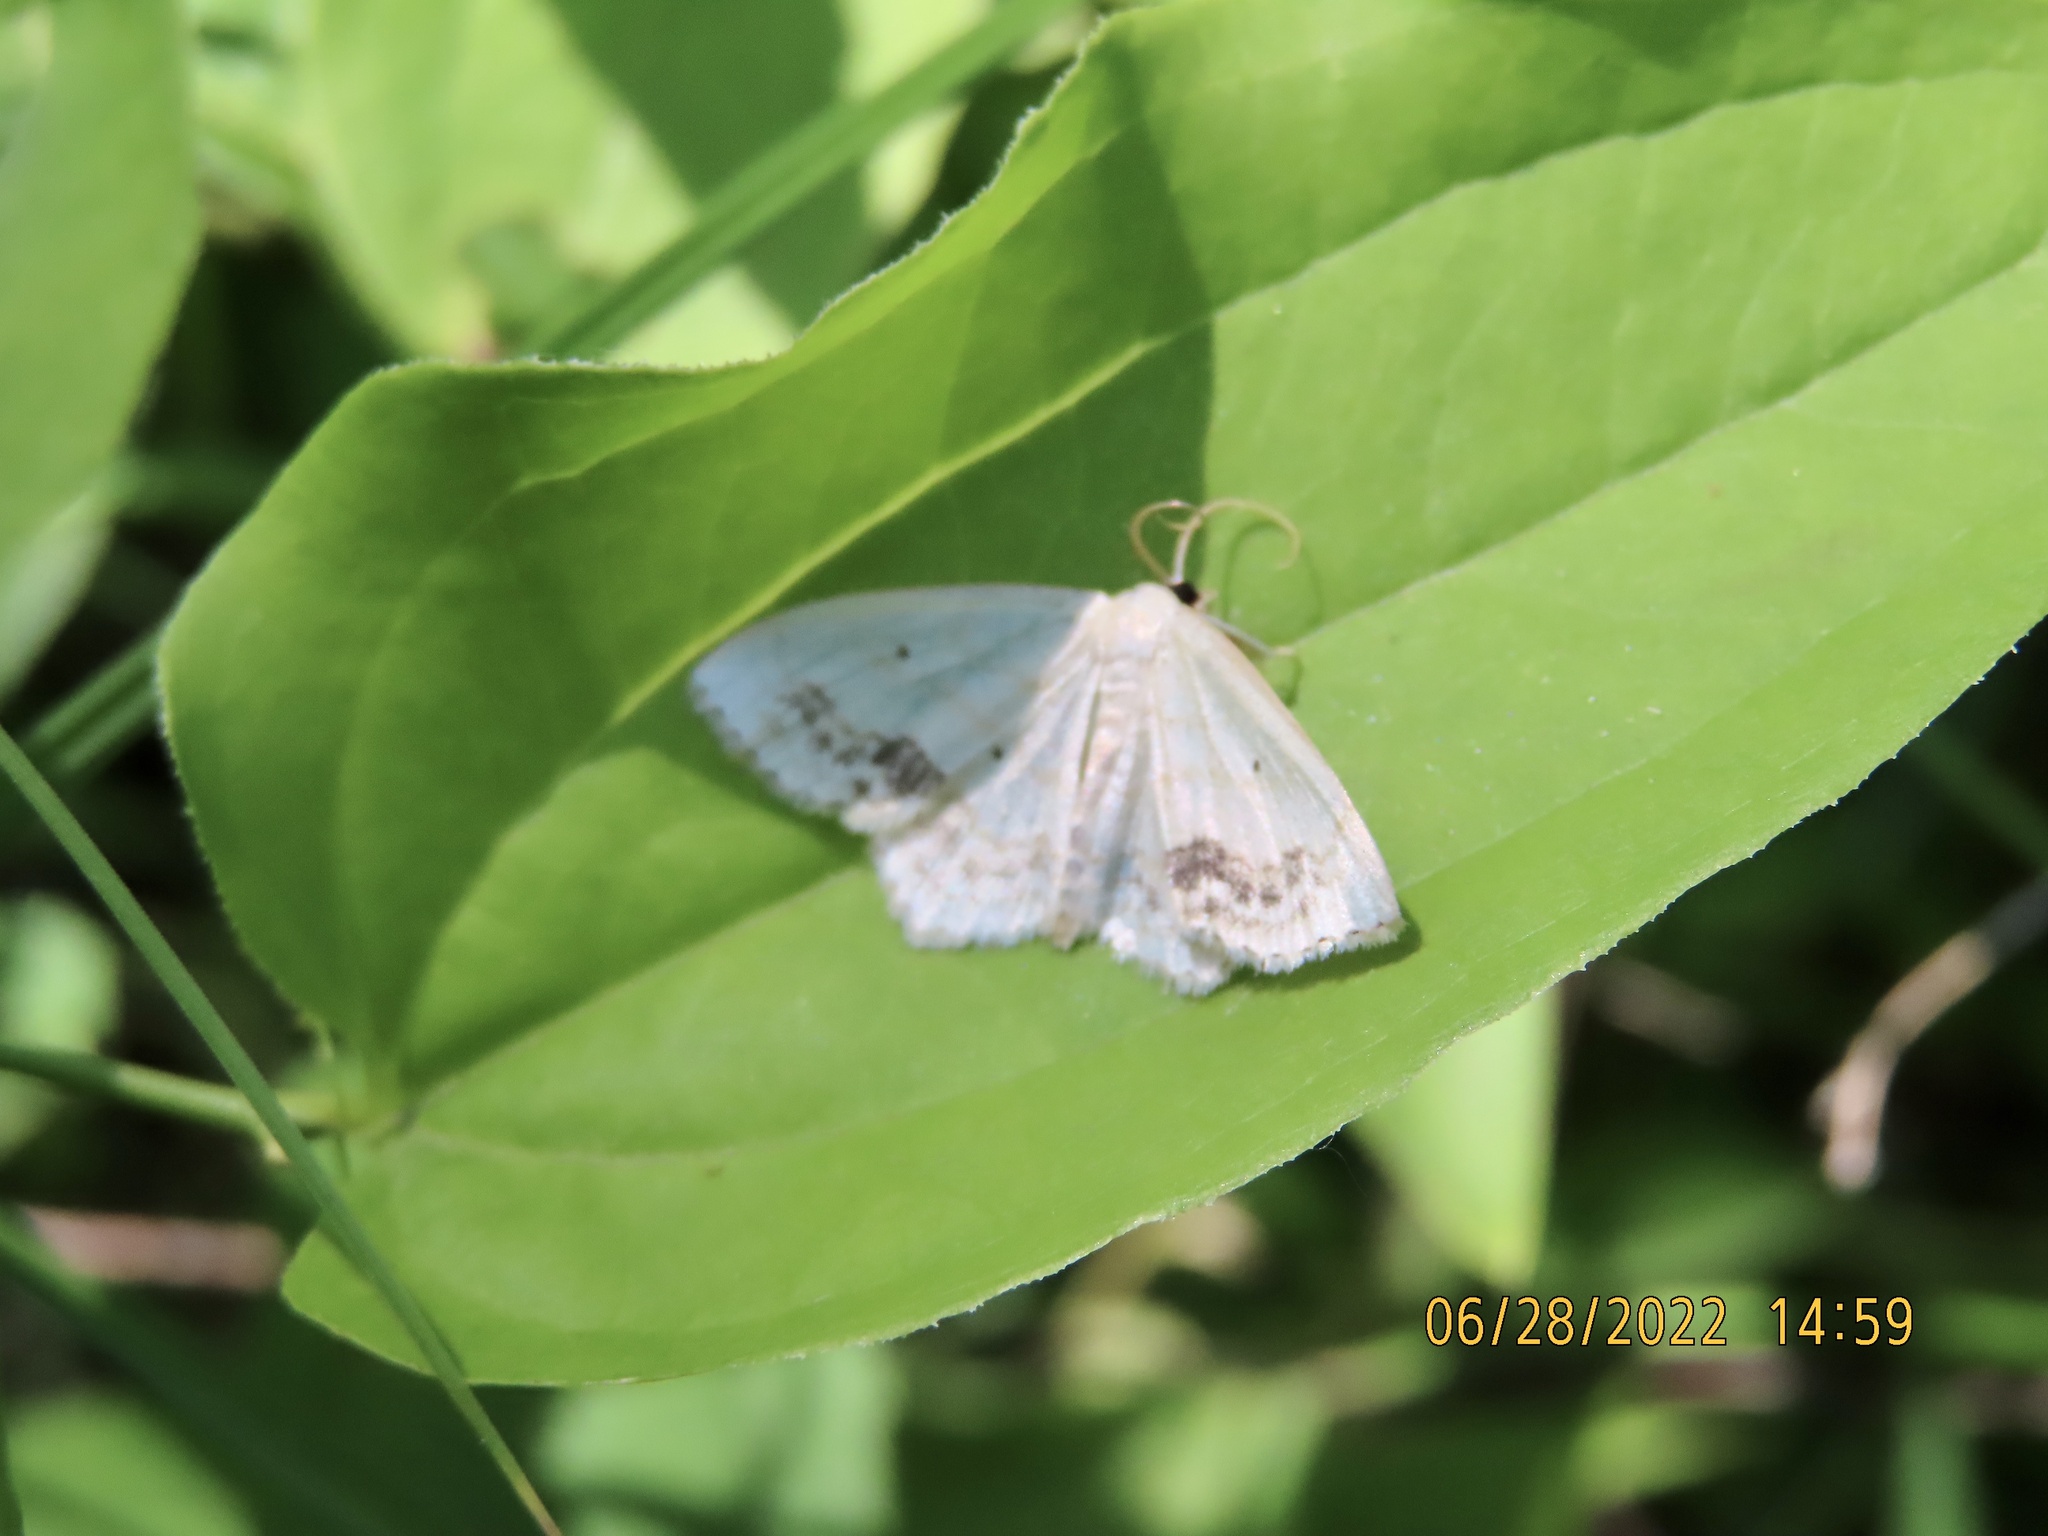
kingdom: Animalia
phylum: Arthropoda
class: Insecta
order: Lepidoptera
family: Geometridae
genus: Scopula
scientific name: Scopula limboundata
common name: Large lace border
